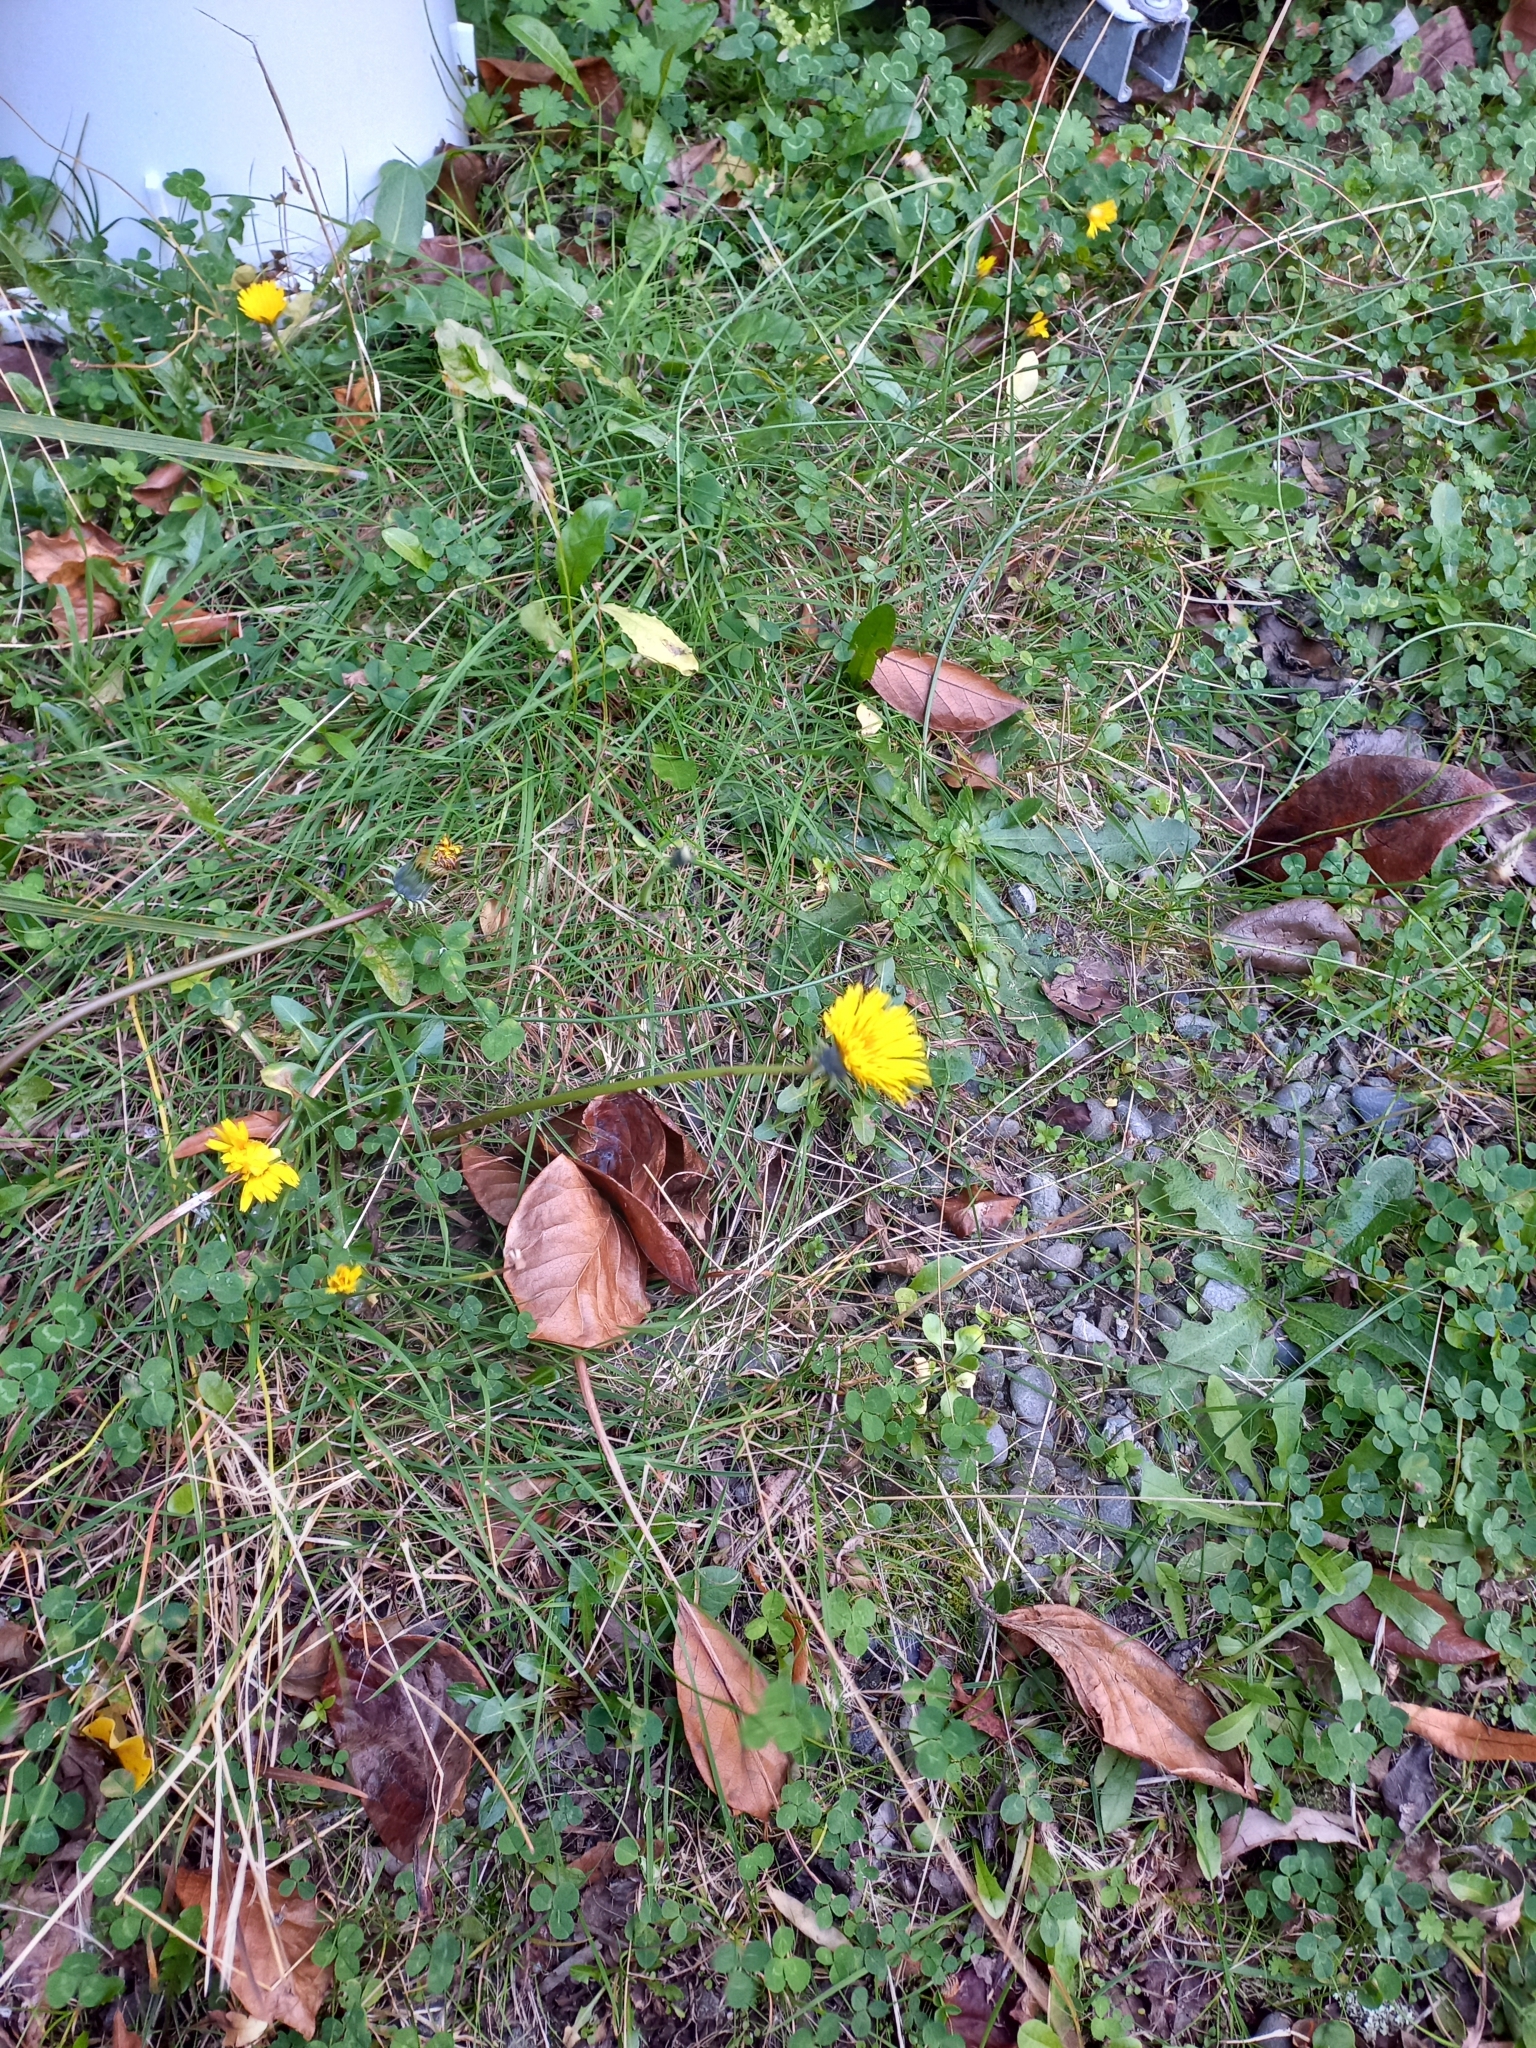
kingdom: Plantae
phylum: Tracheophyta
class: Liliopsida
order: Poales
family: Poaceae
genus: Dichelachne
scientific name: Dichelachne crinita
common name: Clovenfoot plumegrass
